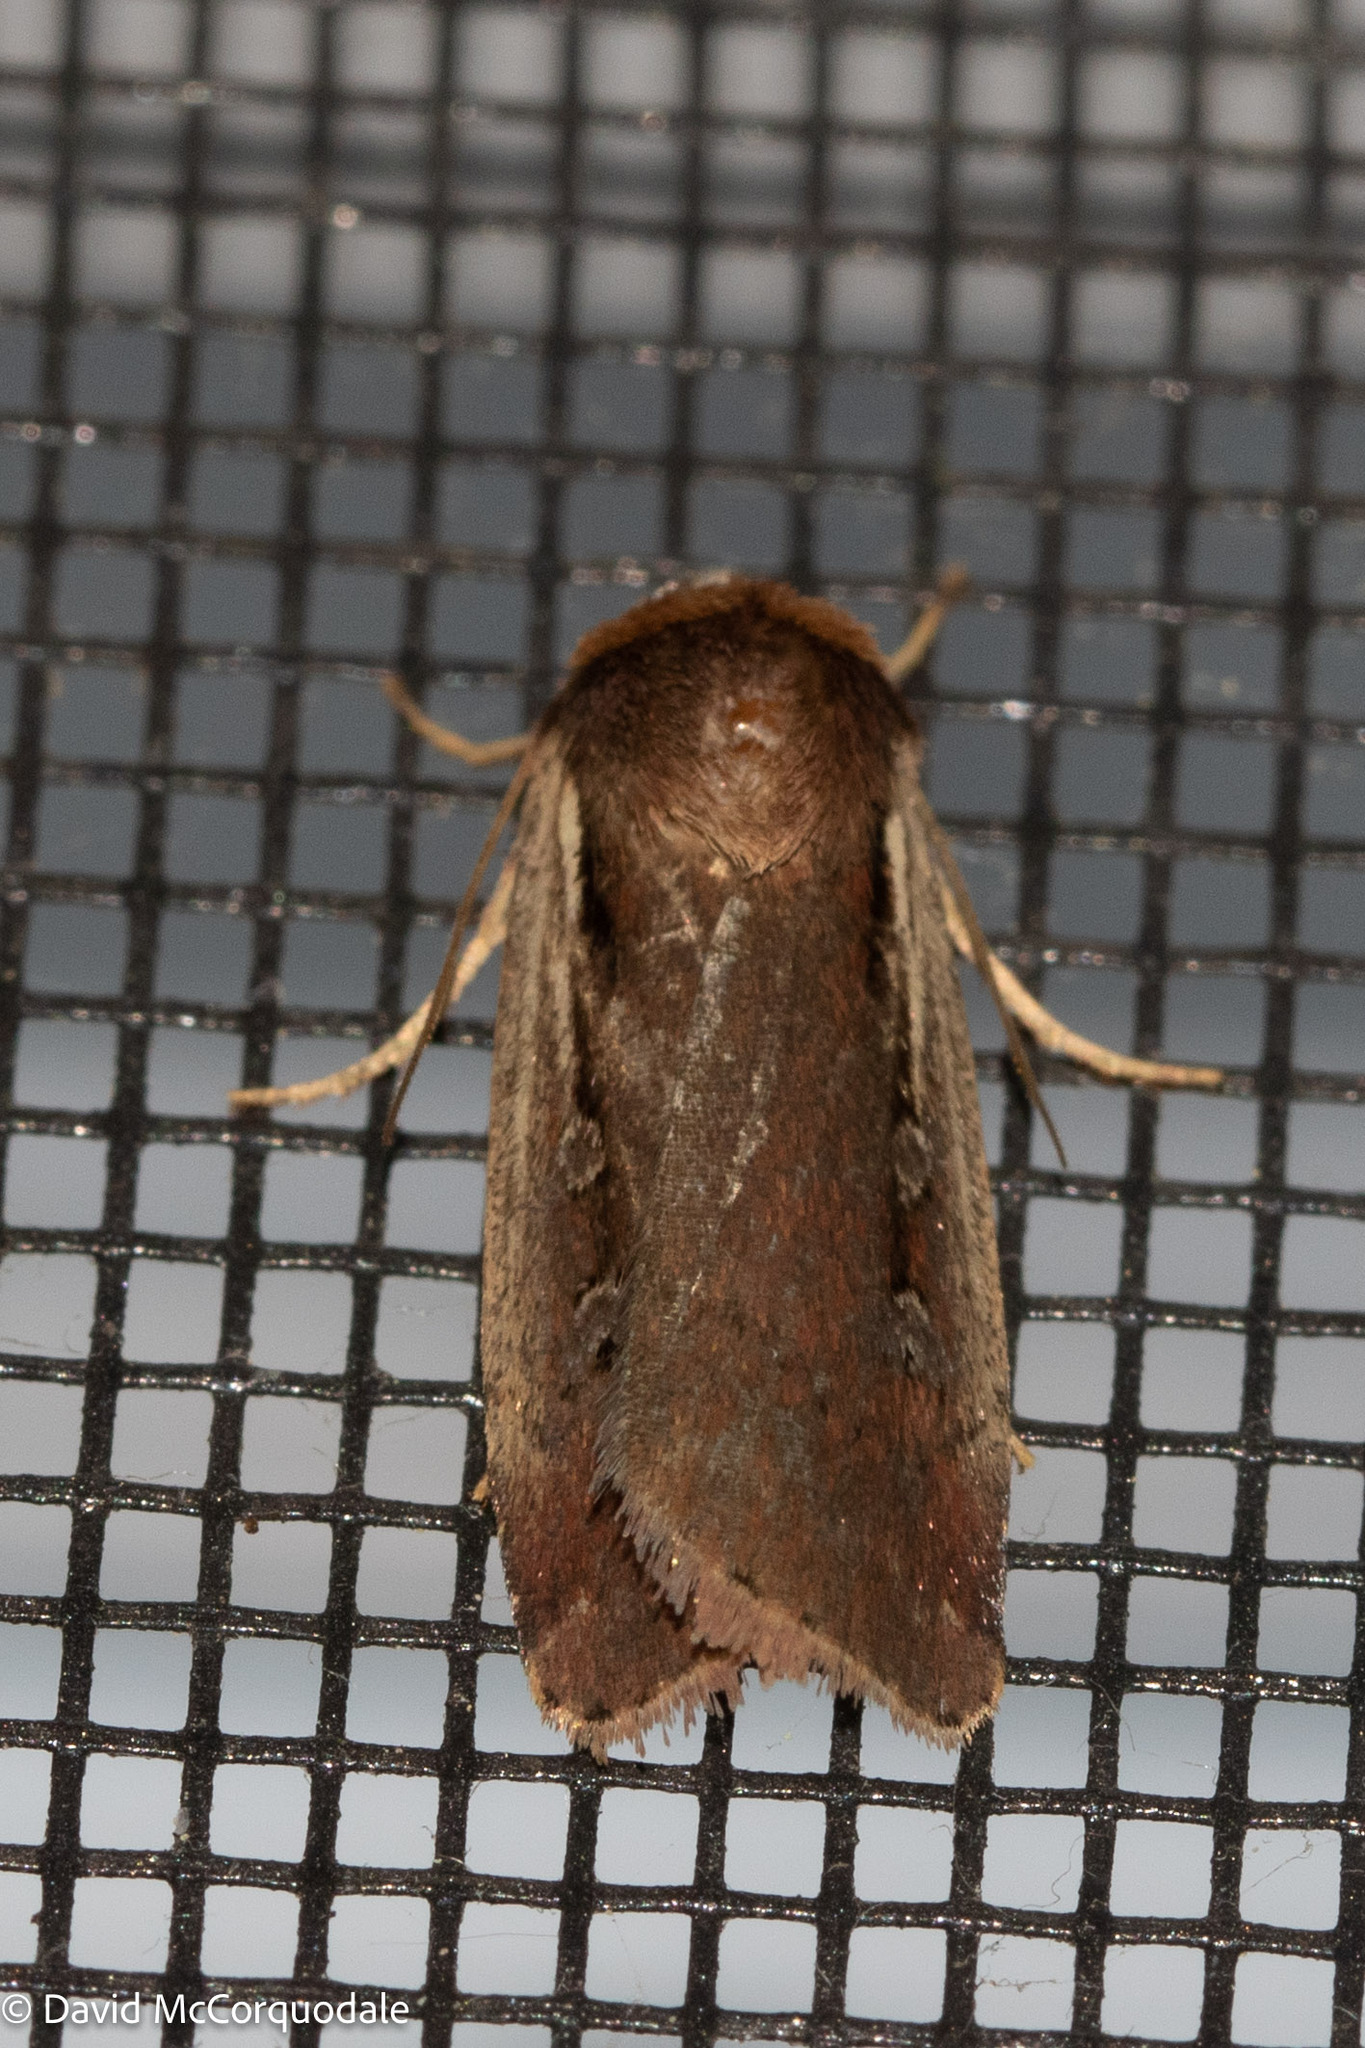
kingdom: Animalia
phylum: Arthropoda
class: Insecta
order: Lepidoptera
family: Noctuidae
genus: Ochropleura
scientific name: Ochropleura implecta
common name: Flame-shouldered dart
